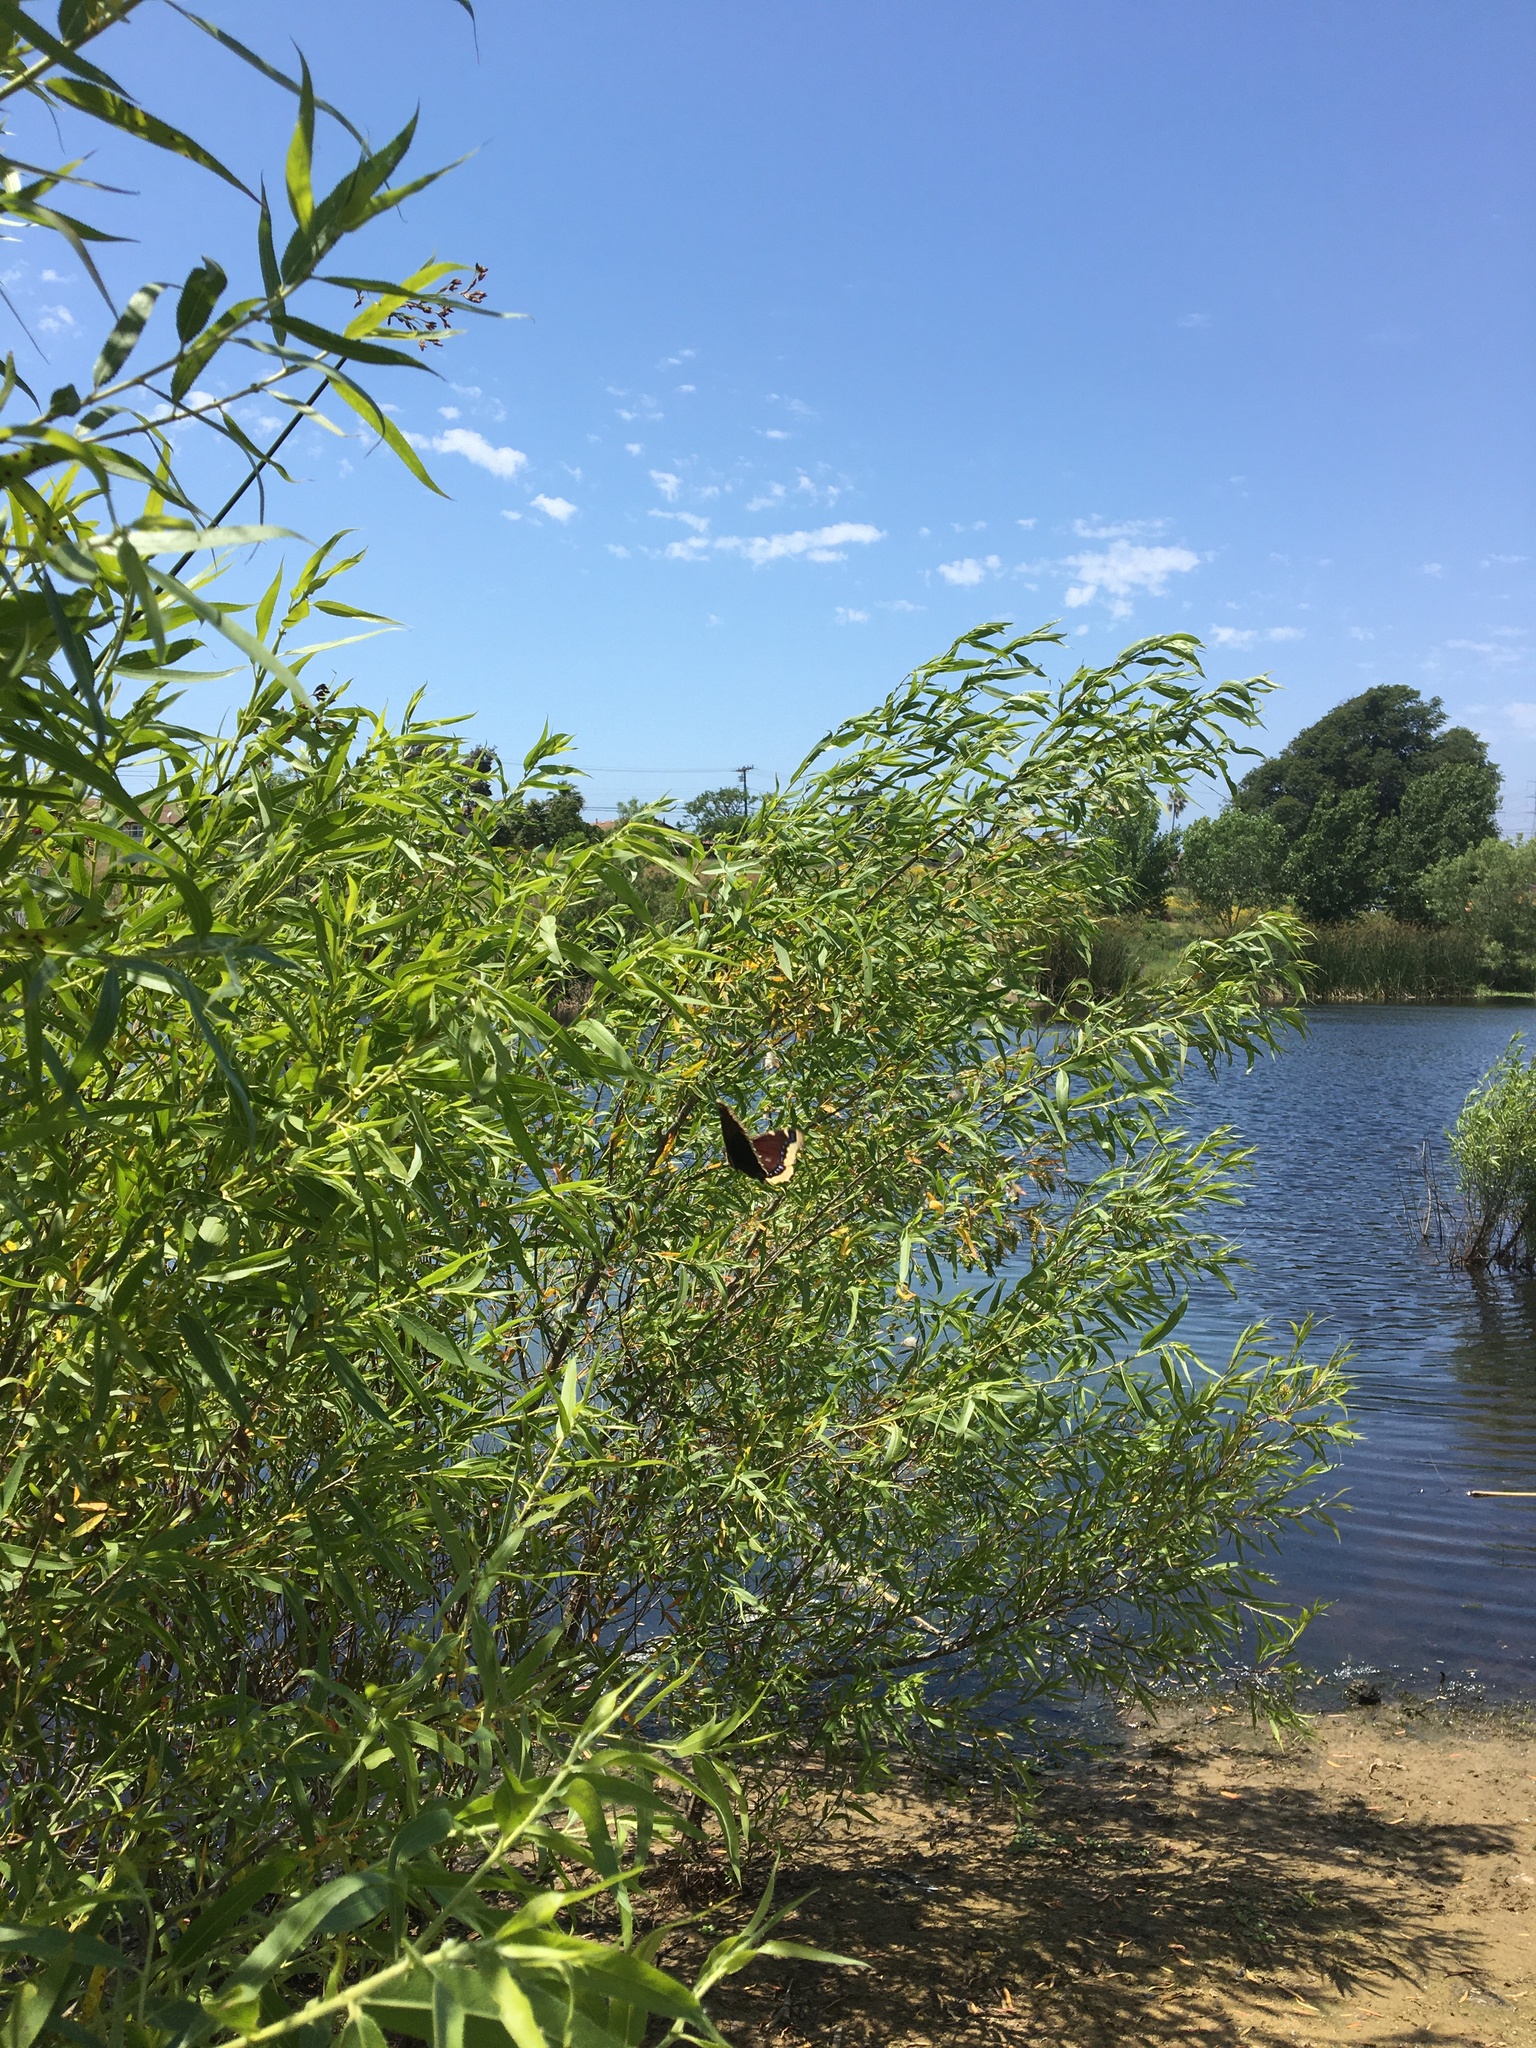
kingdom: Animalia
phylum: Arthropoda
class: Insecta
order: Lepidoptera
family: Nymphalidae
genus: Nymphalis
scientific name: Nymphalis antiopa
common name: Camberwell beauty
